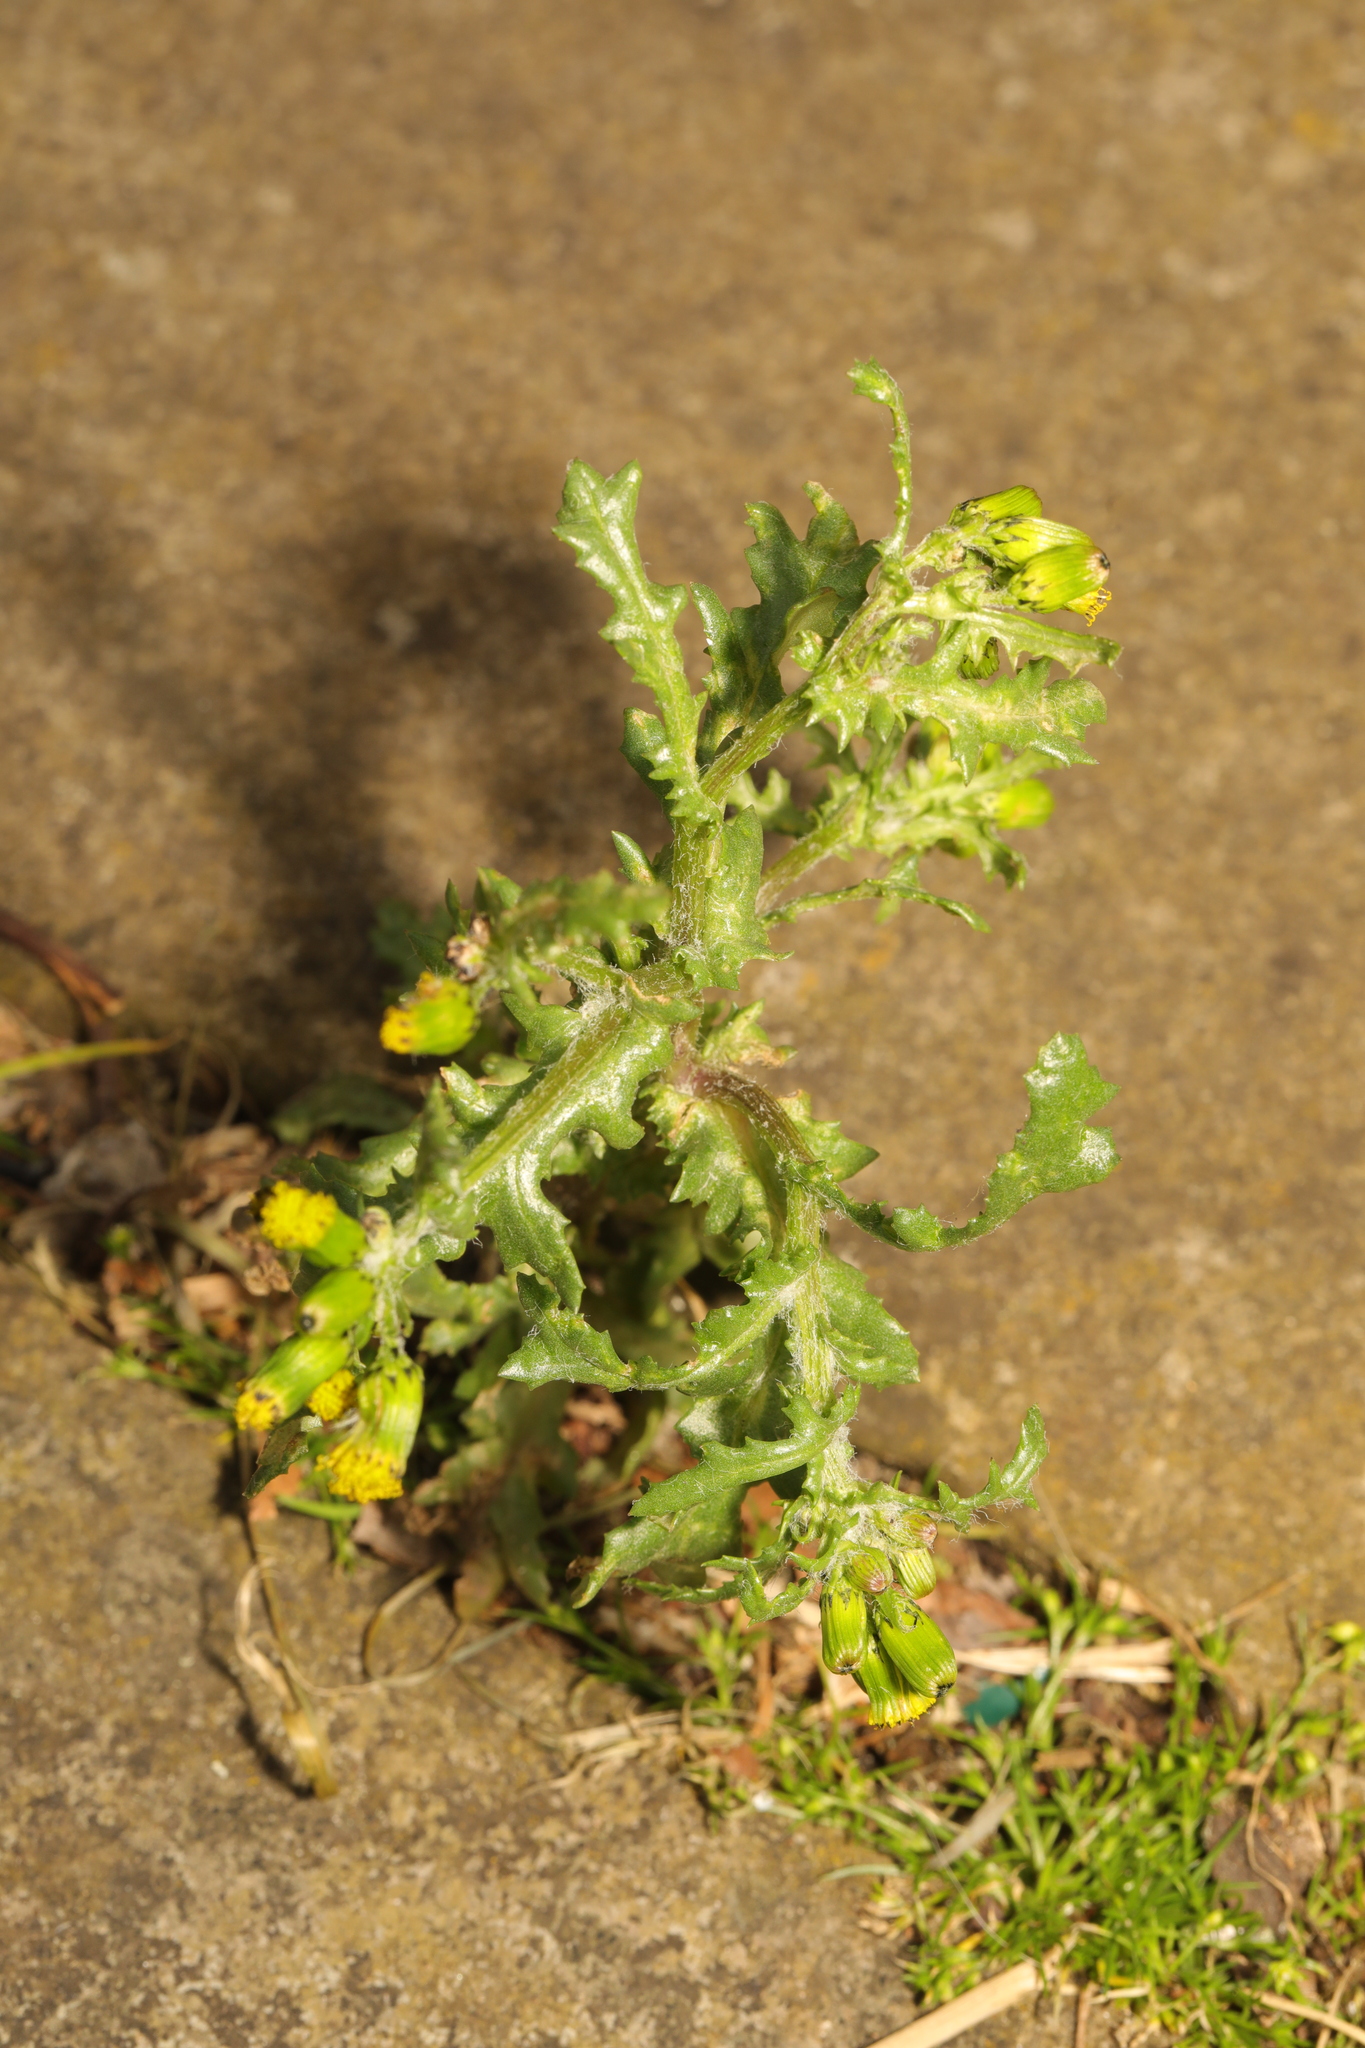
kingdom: Plantae
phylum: Tracheophyta
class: Magnoliopsida
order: Asterales
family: Asteraceae
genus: Senecio
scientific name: Senecio vulgaris
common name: Old-man-in-the-spring
